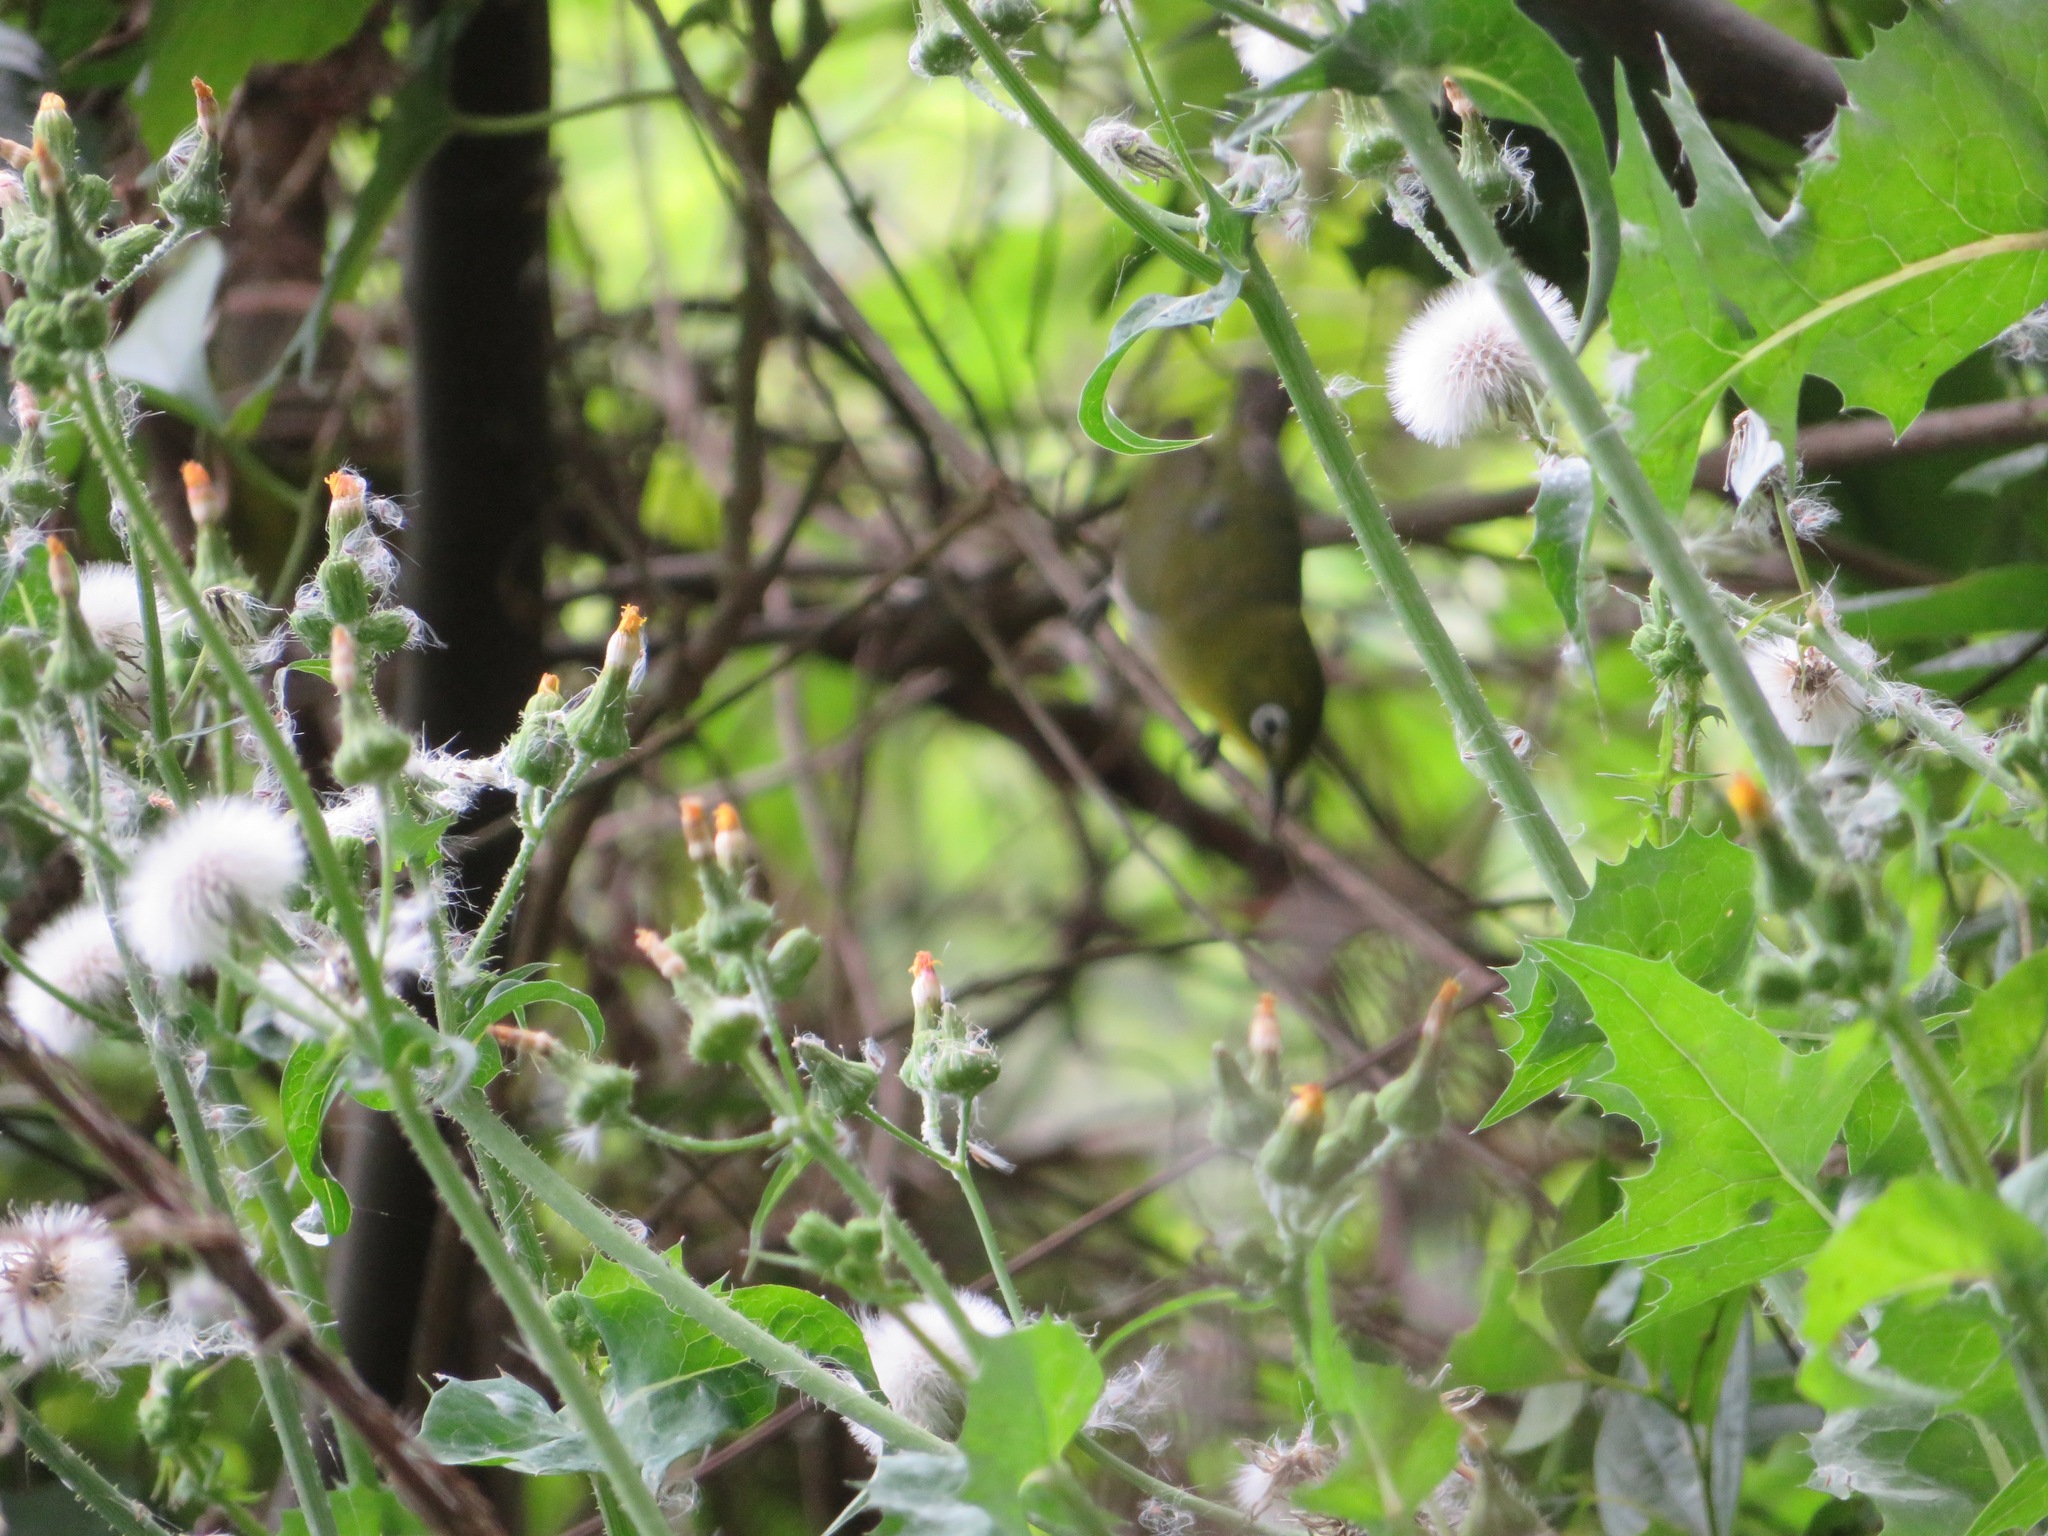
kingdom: Animalia
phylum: Chordata
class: Aves
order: Passeriformes
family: Zosteropidae
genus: Zosterops
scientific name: Zosterops japonicus
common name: Japanese white-eye
